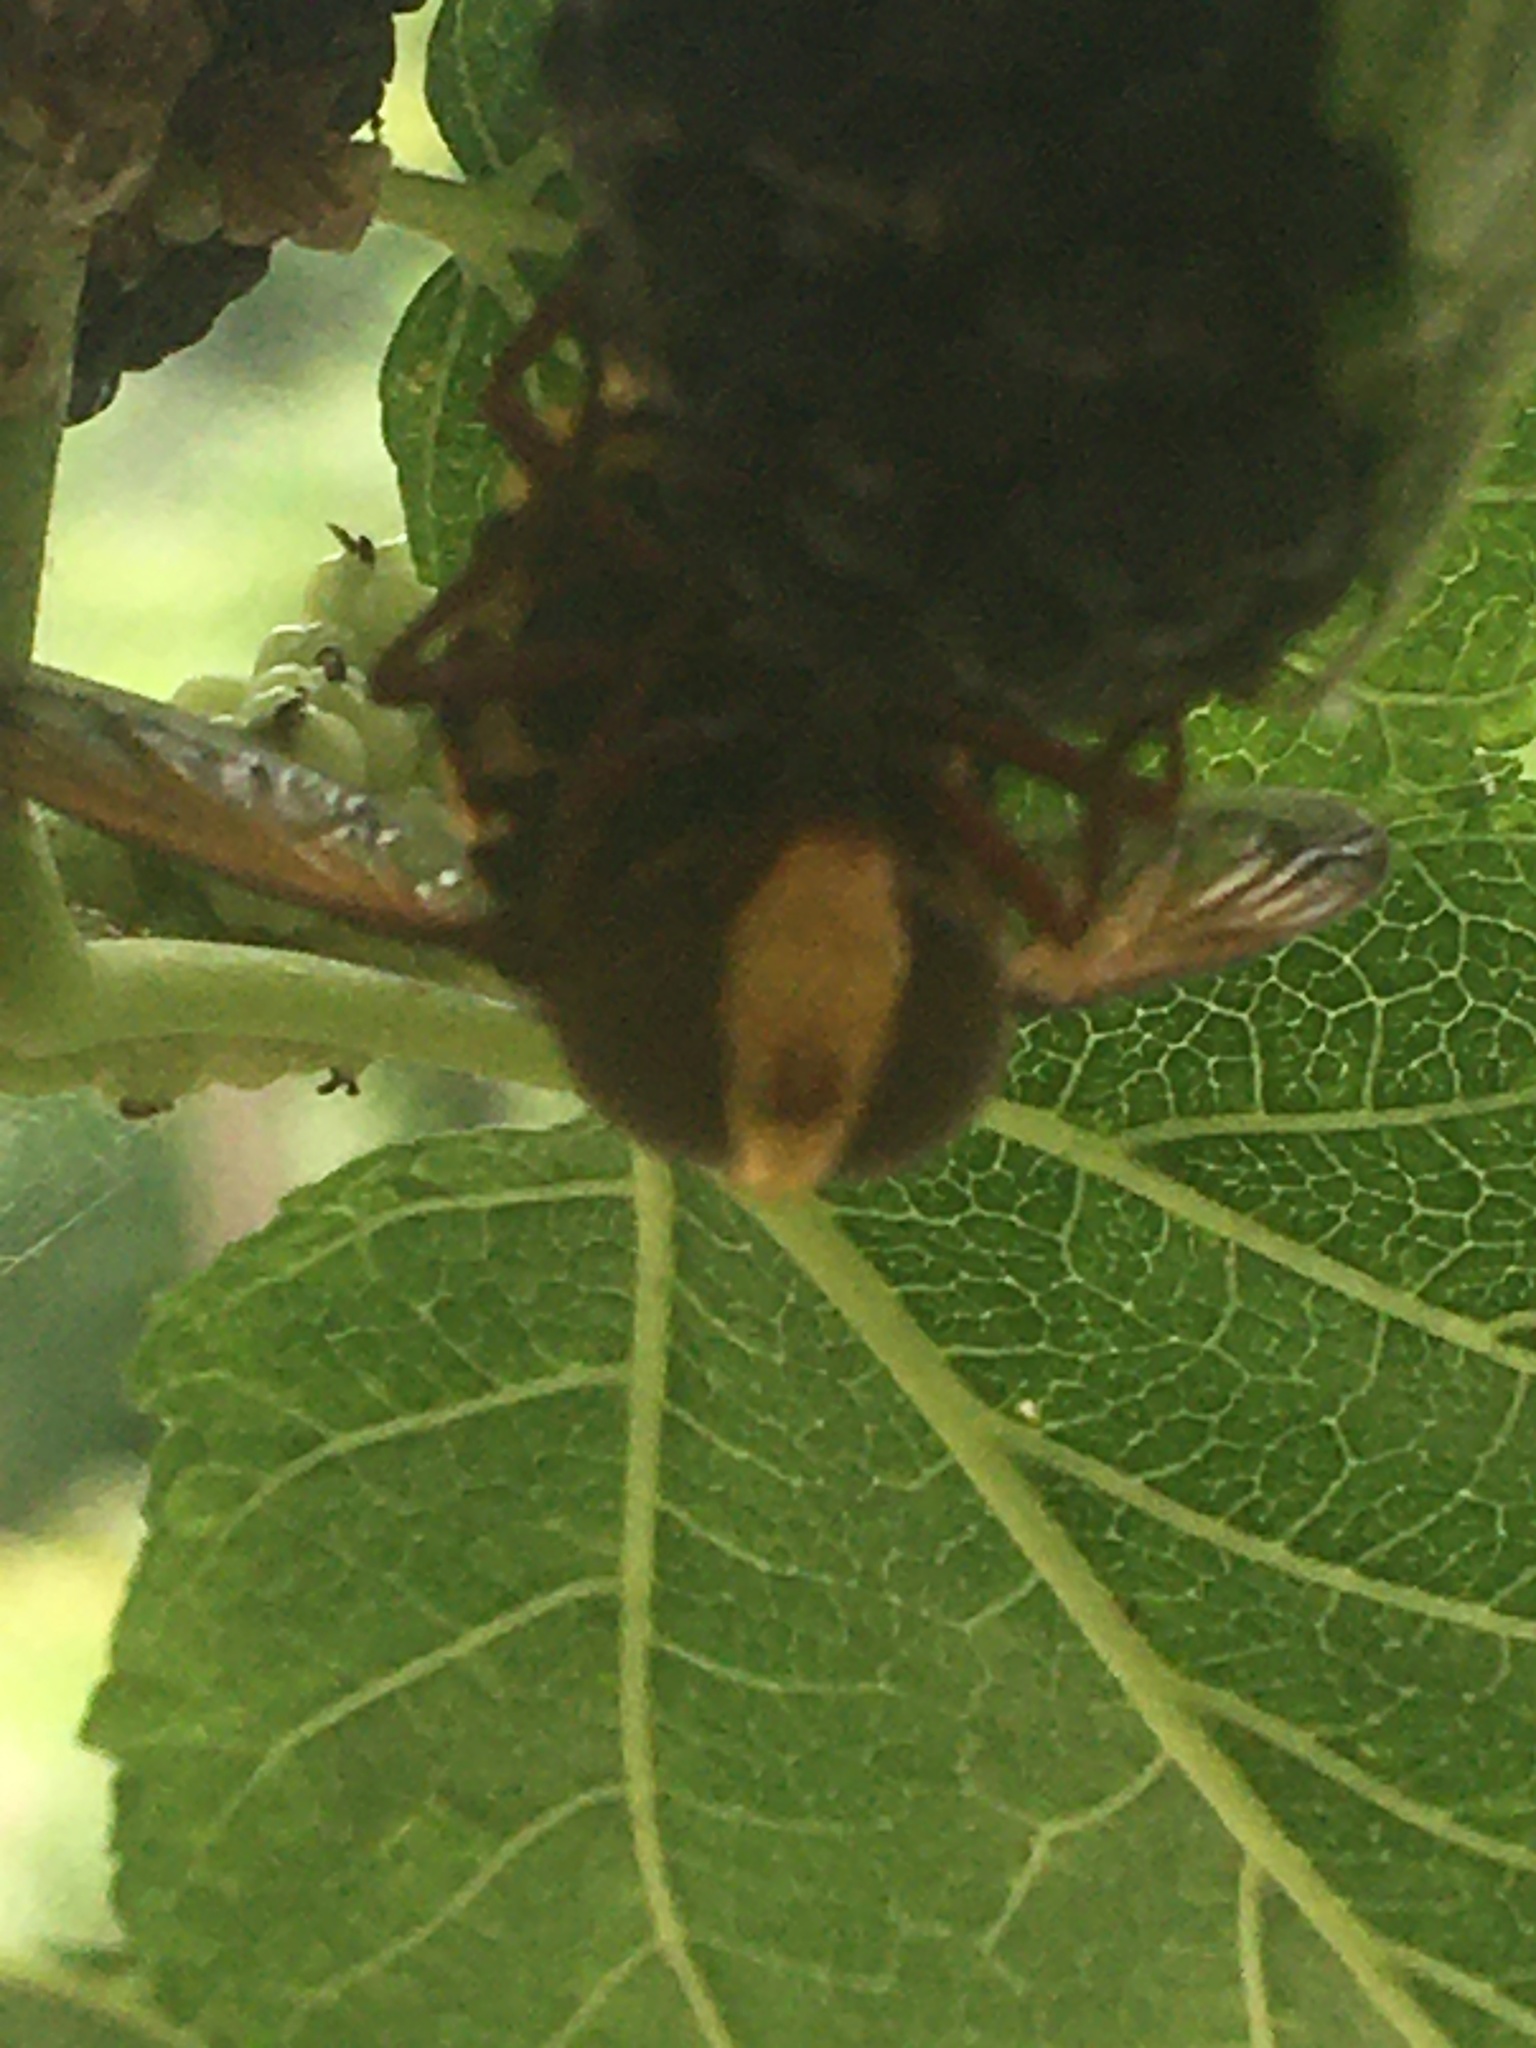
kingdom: Animalia
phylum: Arthropoda
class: Insecta
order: Diptera
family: Syrphidae
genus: Volucella
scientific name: Volucella zonaria
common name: Hornet hoverfly
